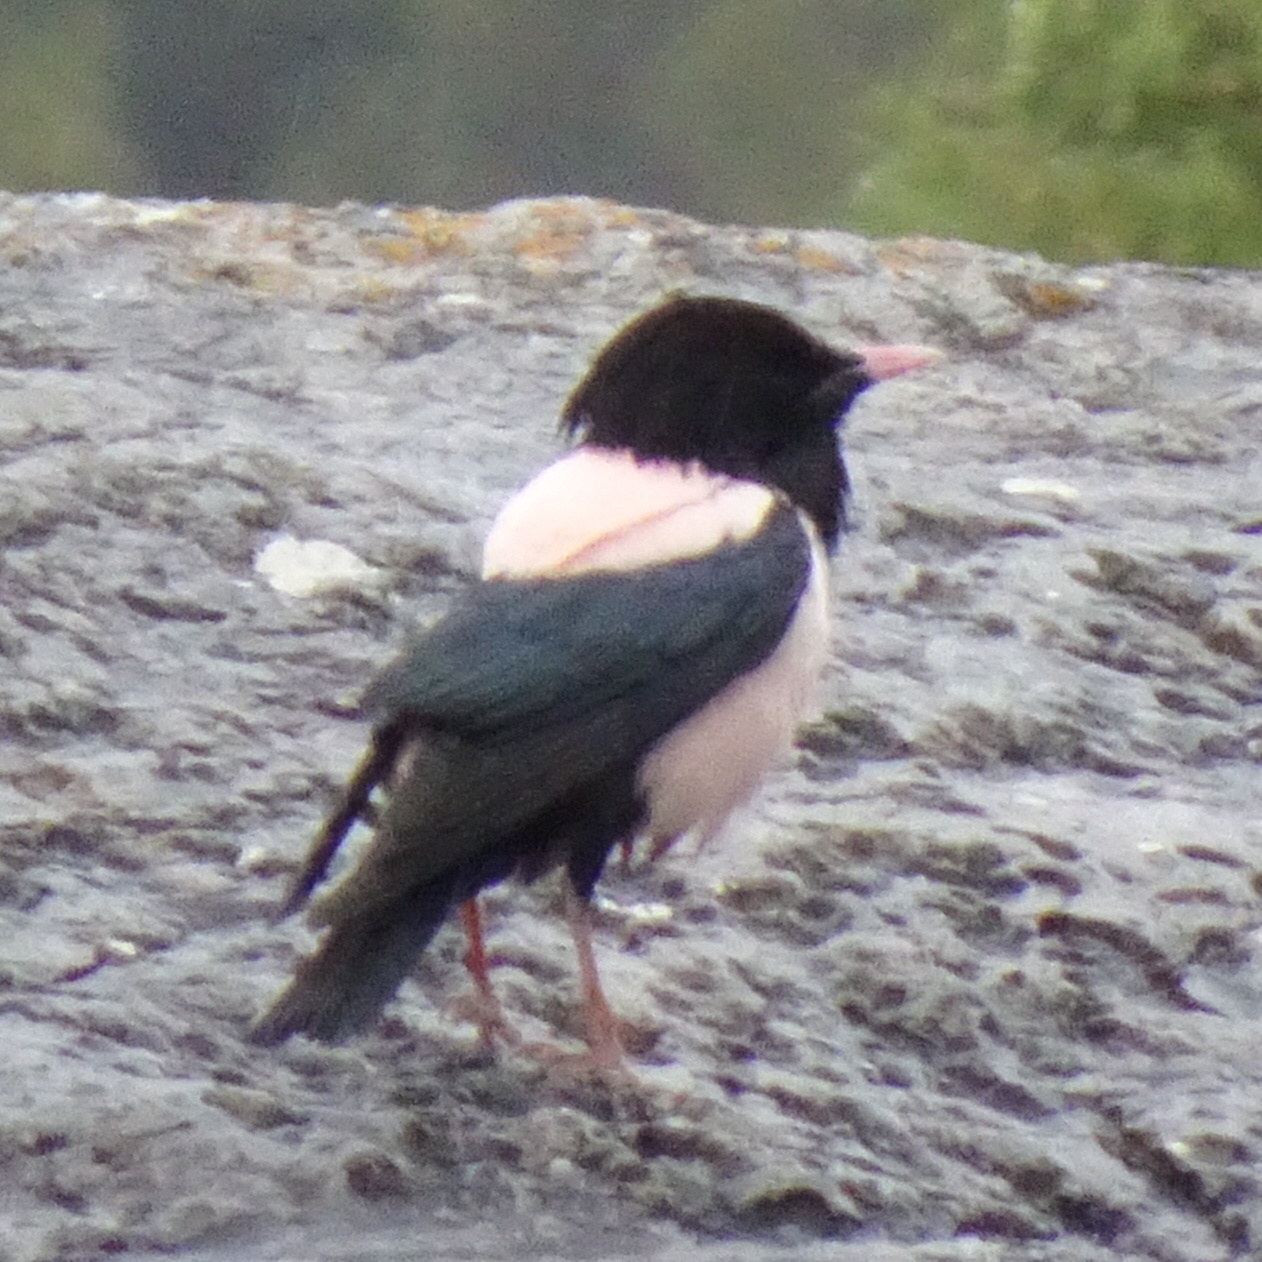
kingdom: Animalia
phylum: Chordata
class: Aves
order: Passeriformes
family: Sturnidae
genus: Pastor
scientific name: Pastor roseus
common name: Rosy starling
